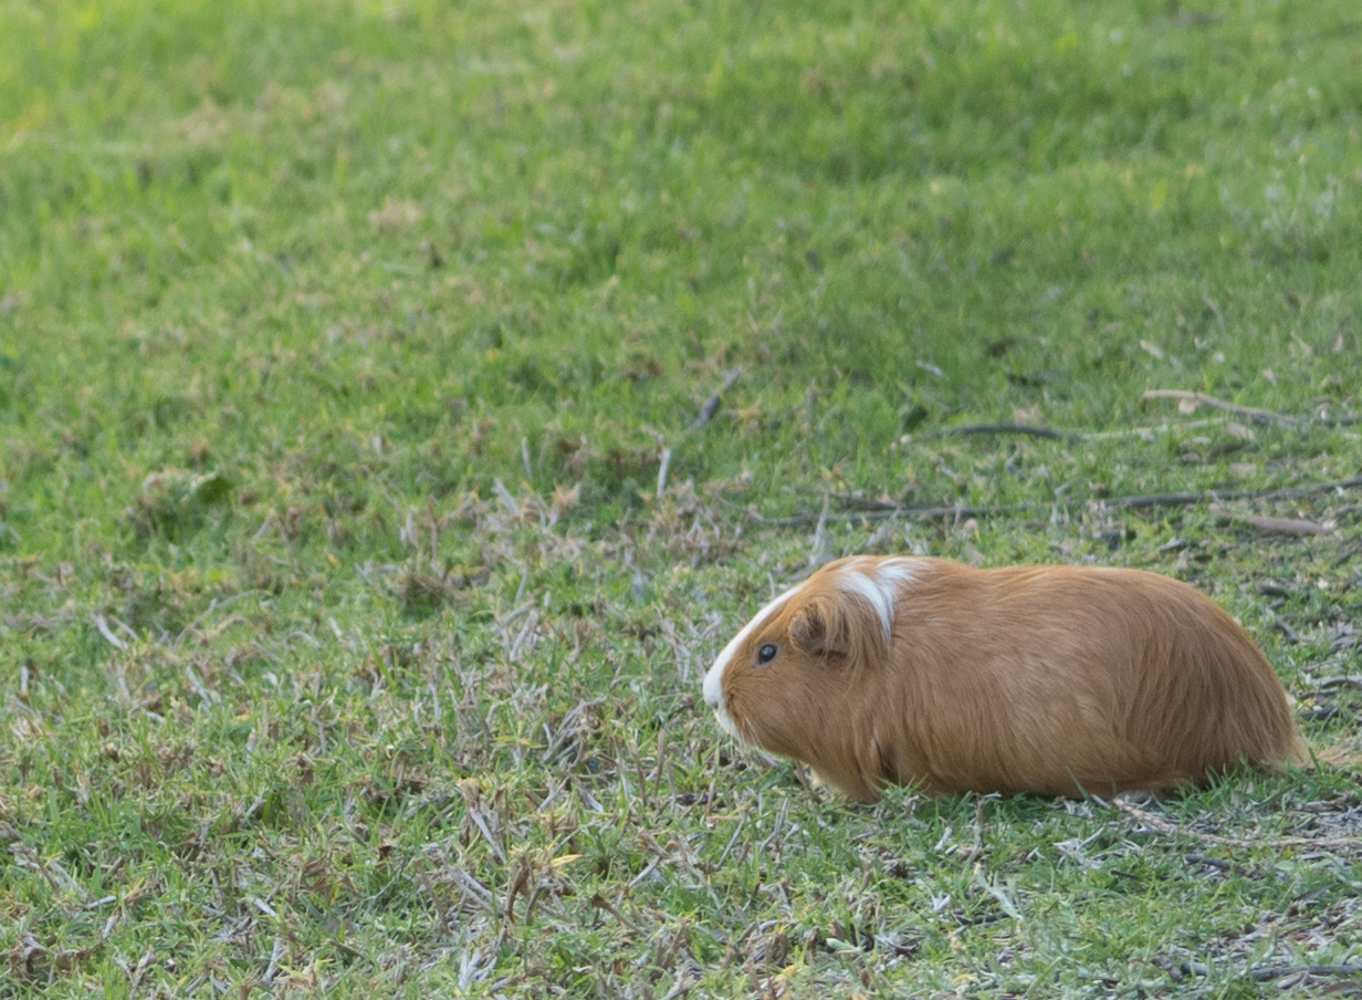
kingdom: Animalia
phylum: Chordata
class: Mammalia
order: Rodentia
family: Caviidae
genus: Cavia
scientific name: Cavia porcellus
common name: Guinea pig
